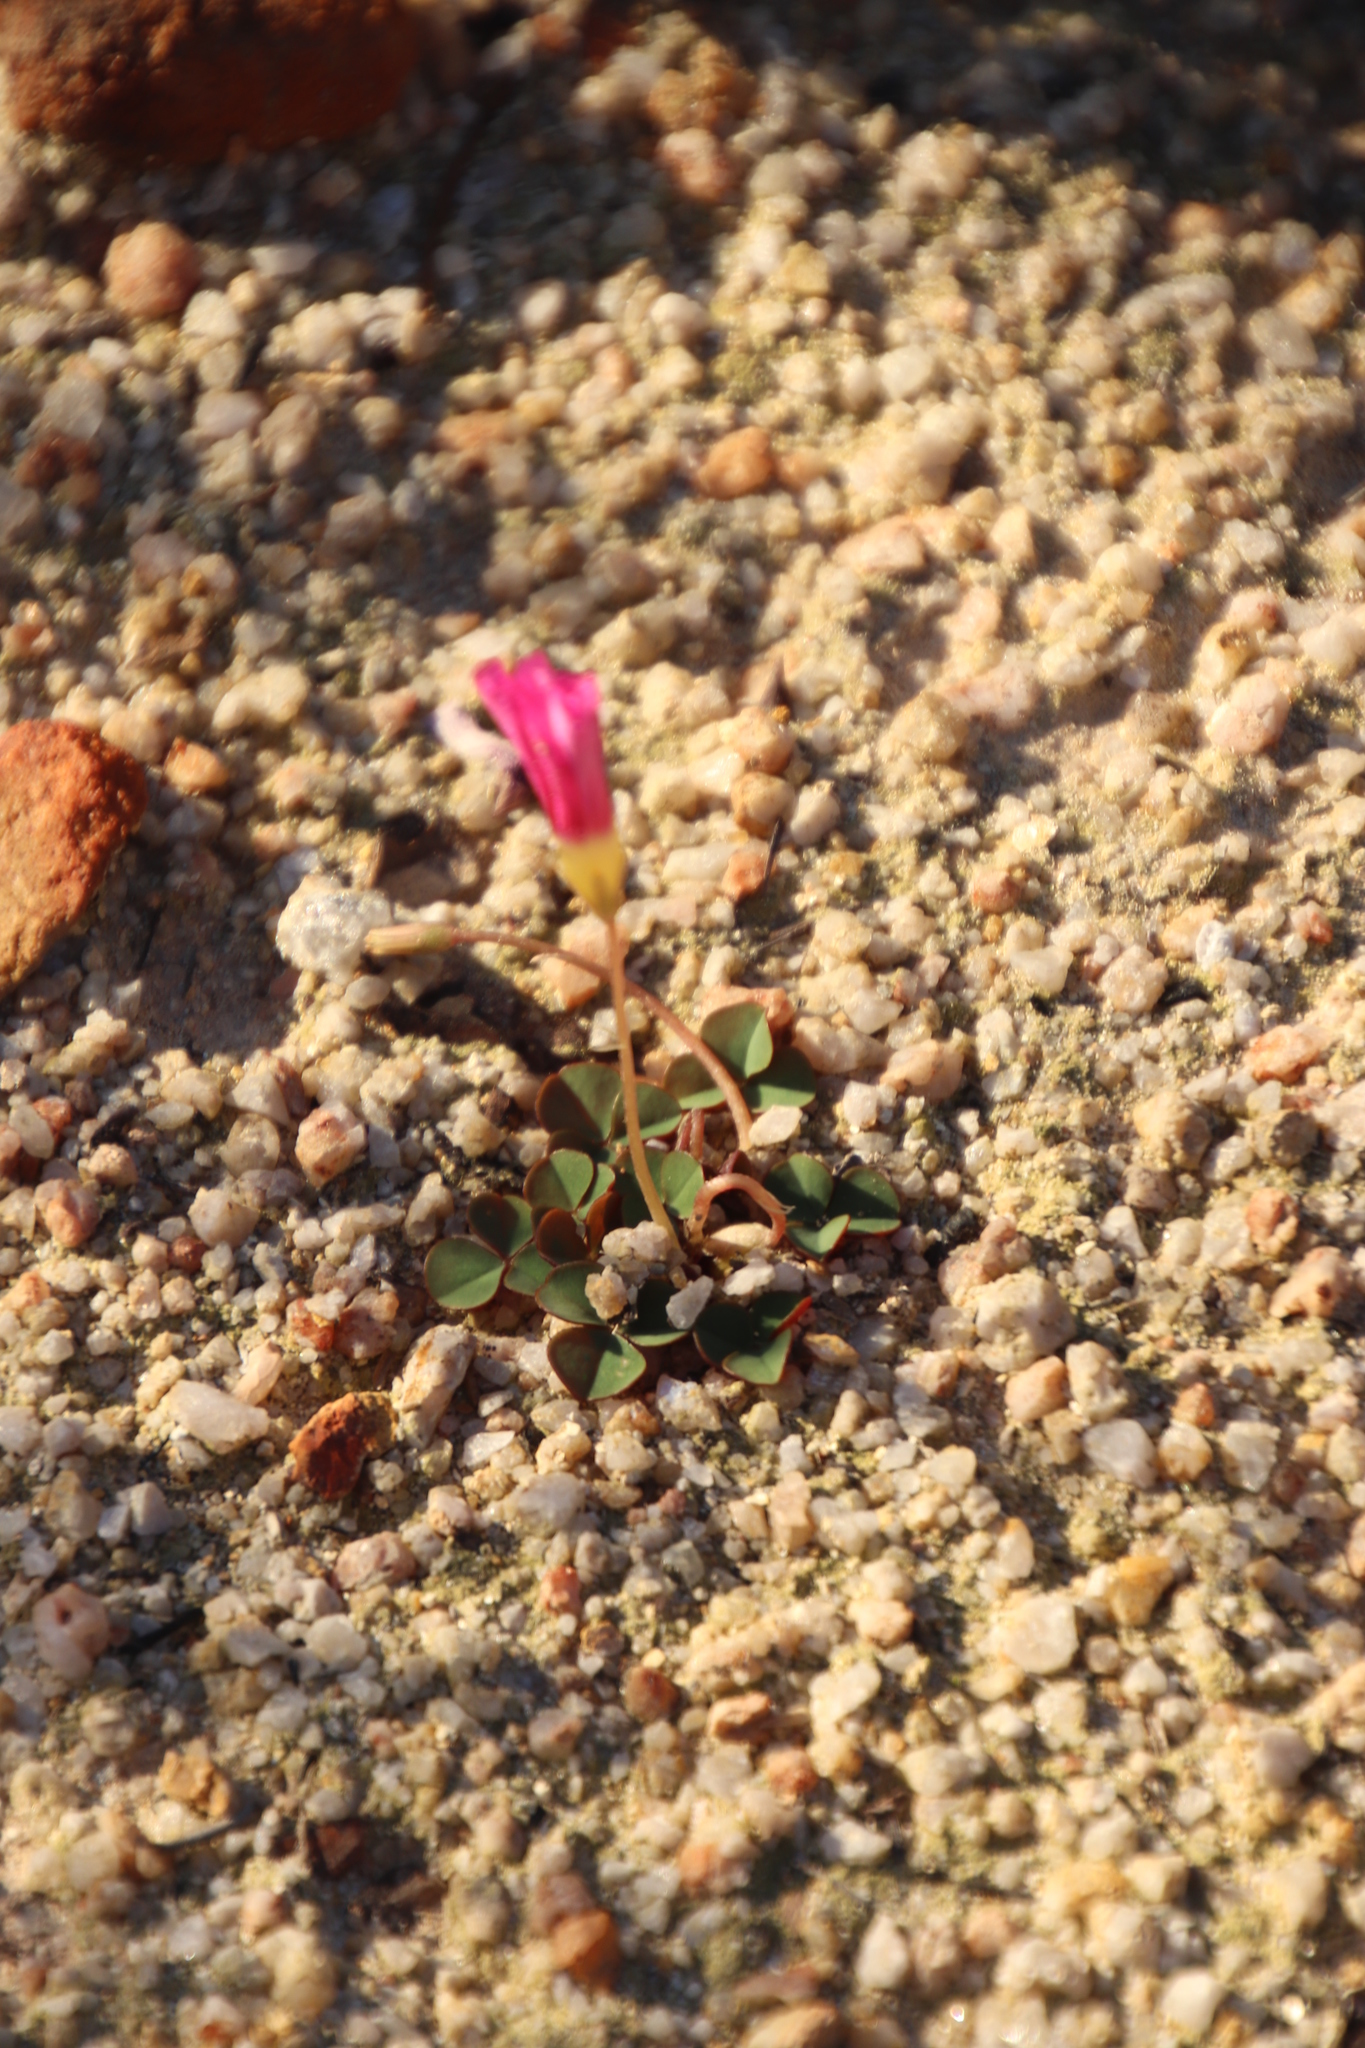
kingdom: Plantae
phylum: Tracheophyta
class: Magnoliopsida
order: Oxalidales
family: Oxalidaceae
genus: Oxalis
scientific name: Oxalis commutata
